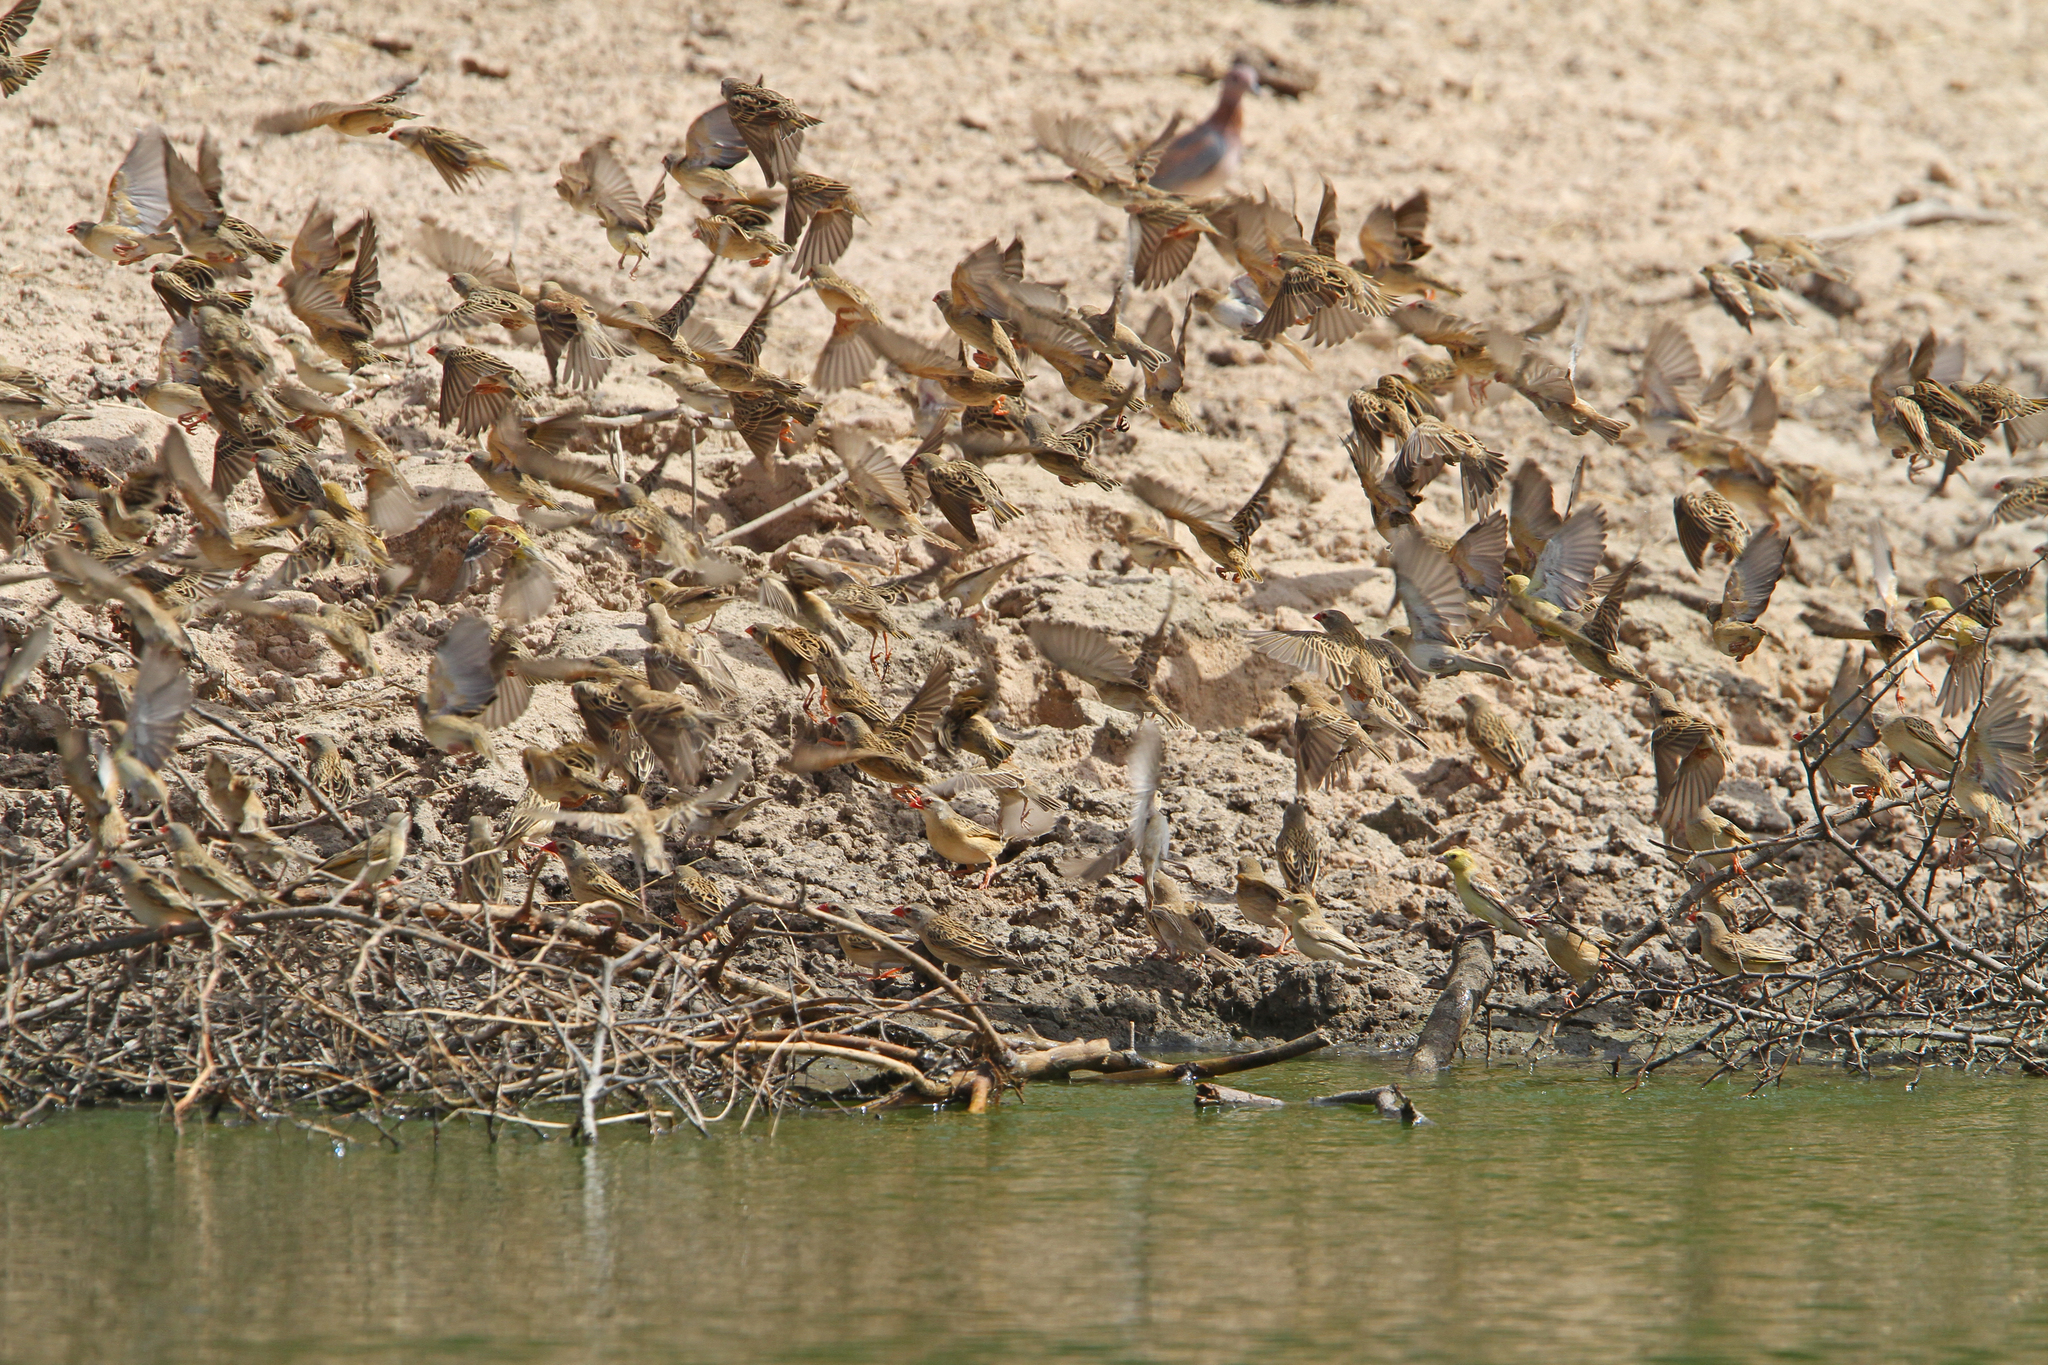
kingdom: Animalia
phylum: Chordata
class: Aves
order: Passeriformes
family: Ploceidae
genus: Quelea
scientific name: Quelea quelea
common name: Red-billed quelea
